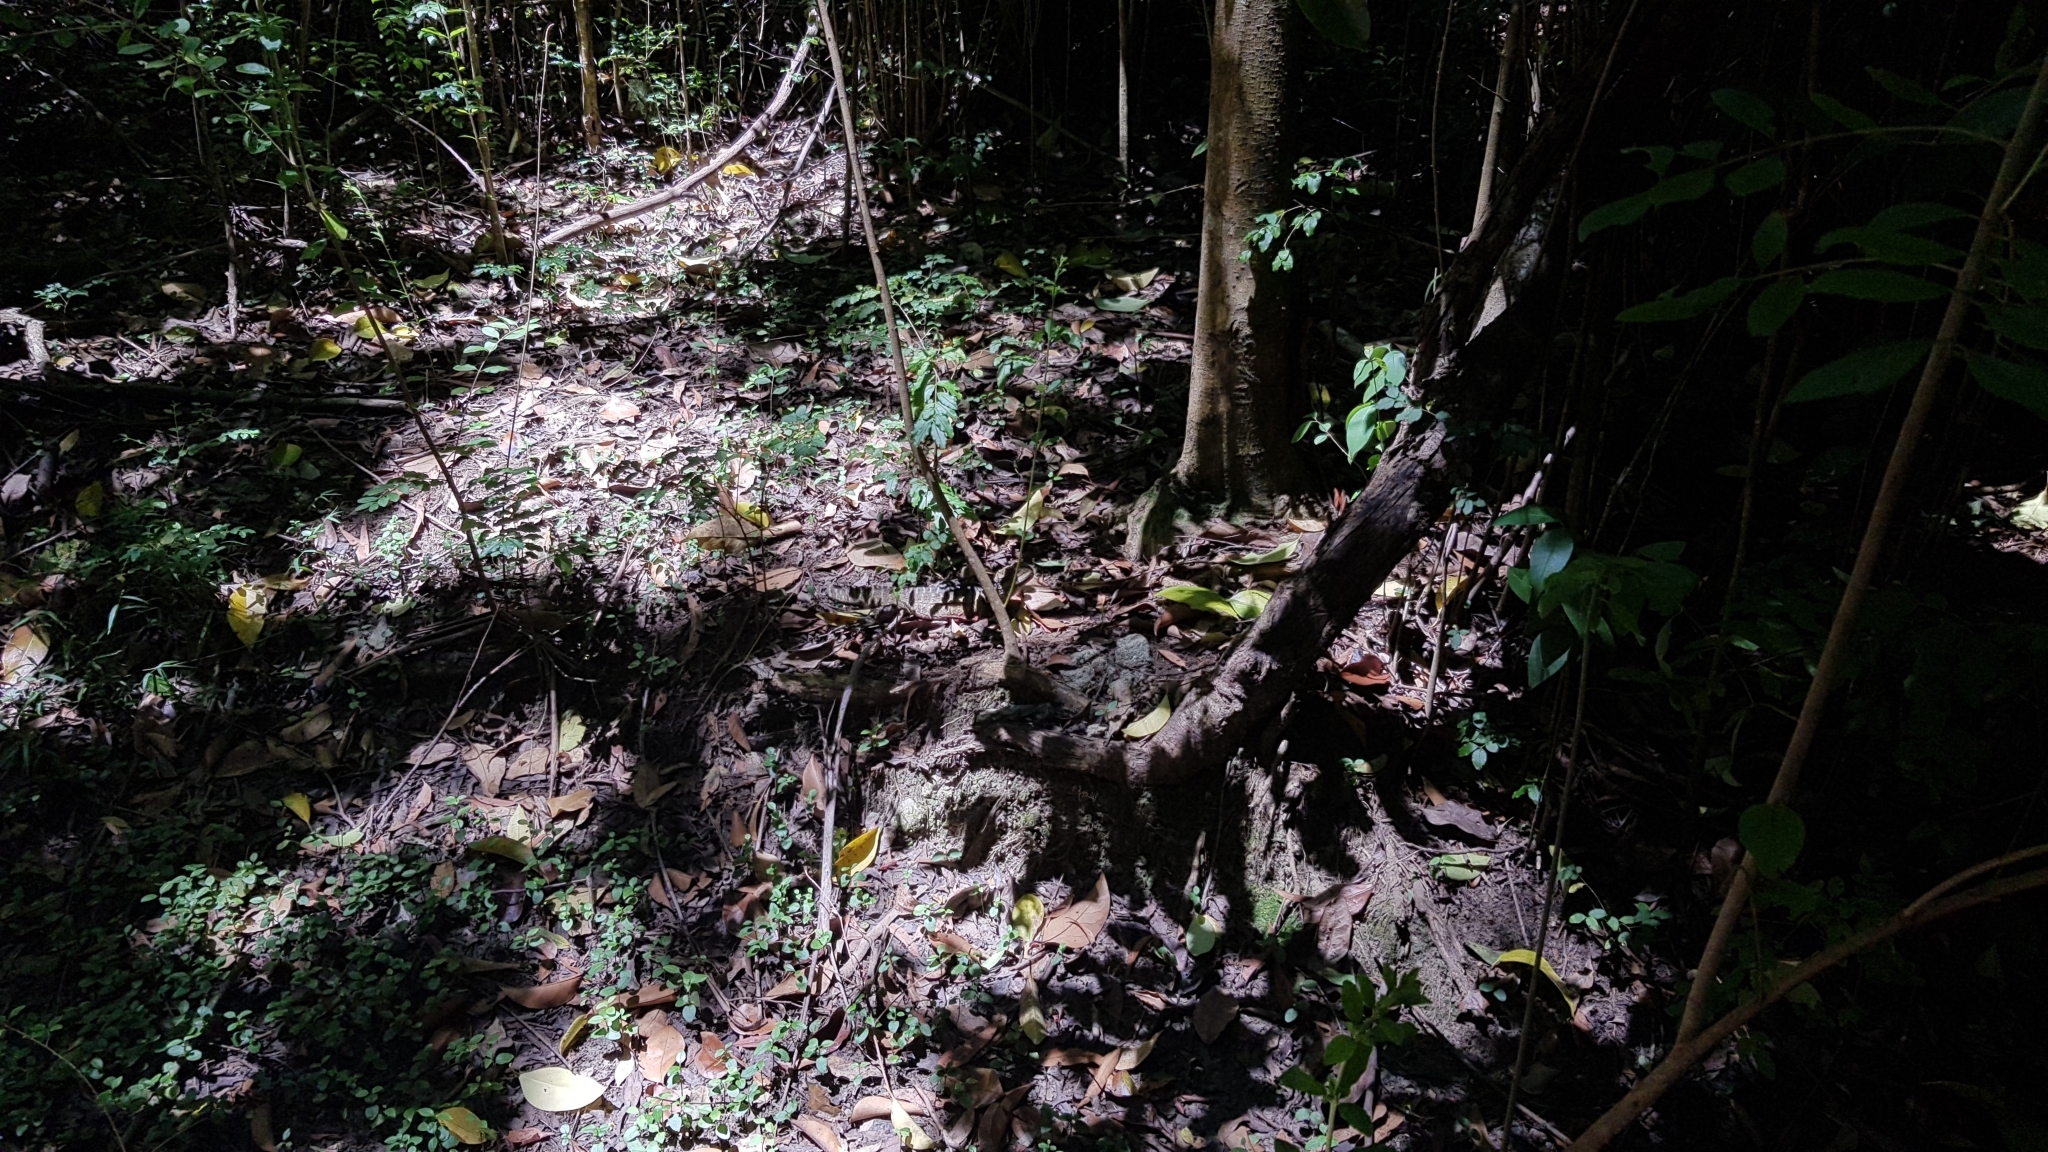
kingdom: Animalia
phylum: Chordata
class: Squamata
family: Agamidae
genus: Intellagama
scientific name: Intellagama lesueurii
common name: Eastern water dragon
